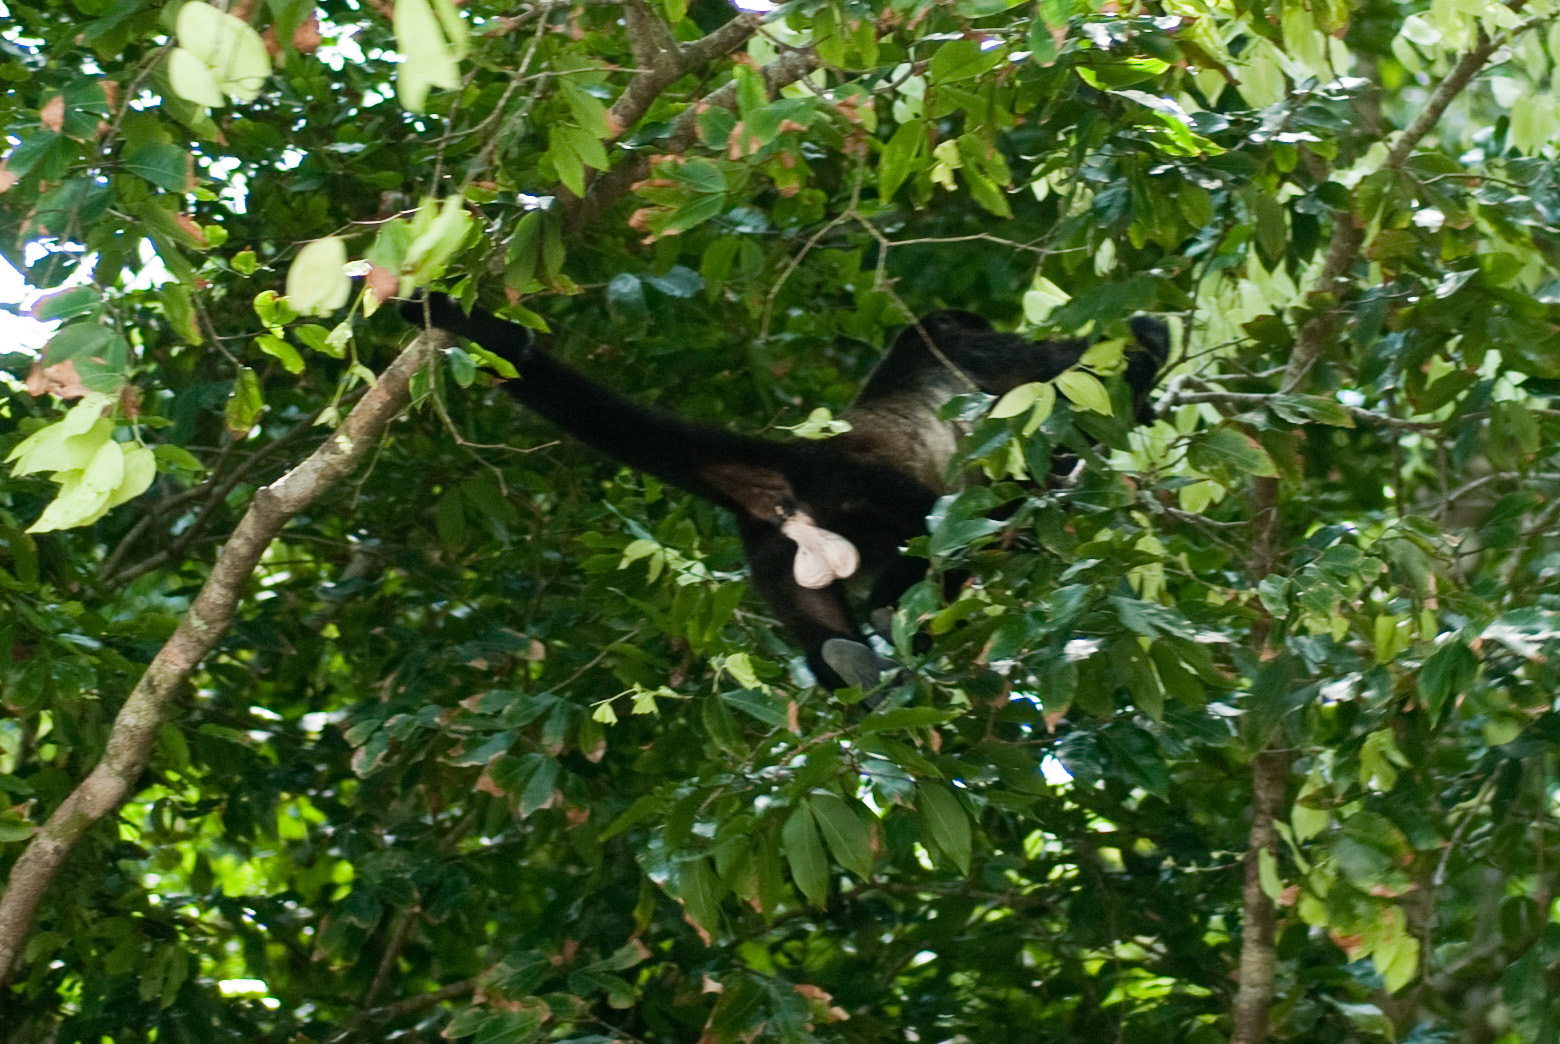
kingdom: Animalia
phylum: Chordata
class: Mammalia
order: Primates
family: Atelidae
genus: Alouatta
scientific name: Alouatta palliata
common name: Mantled howler
